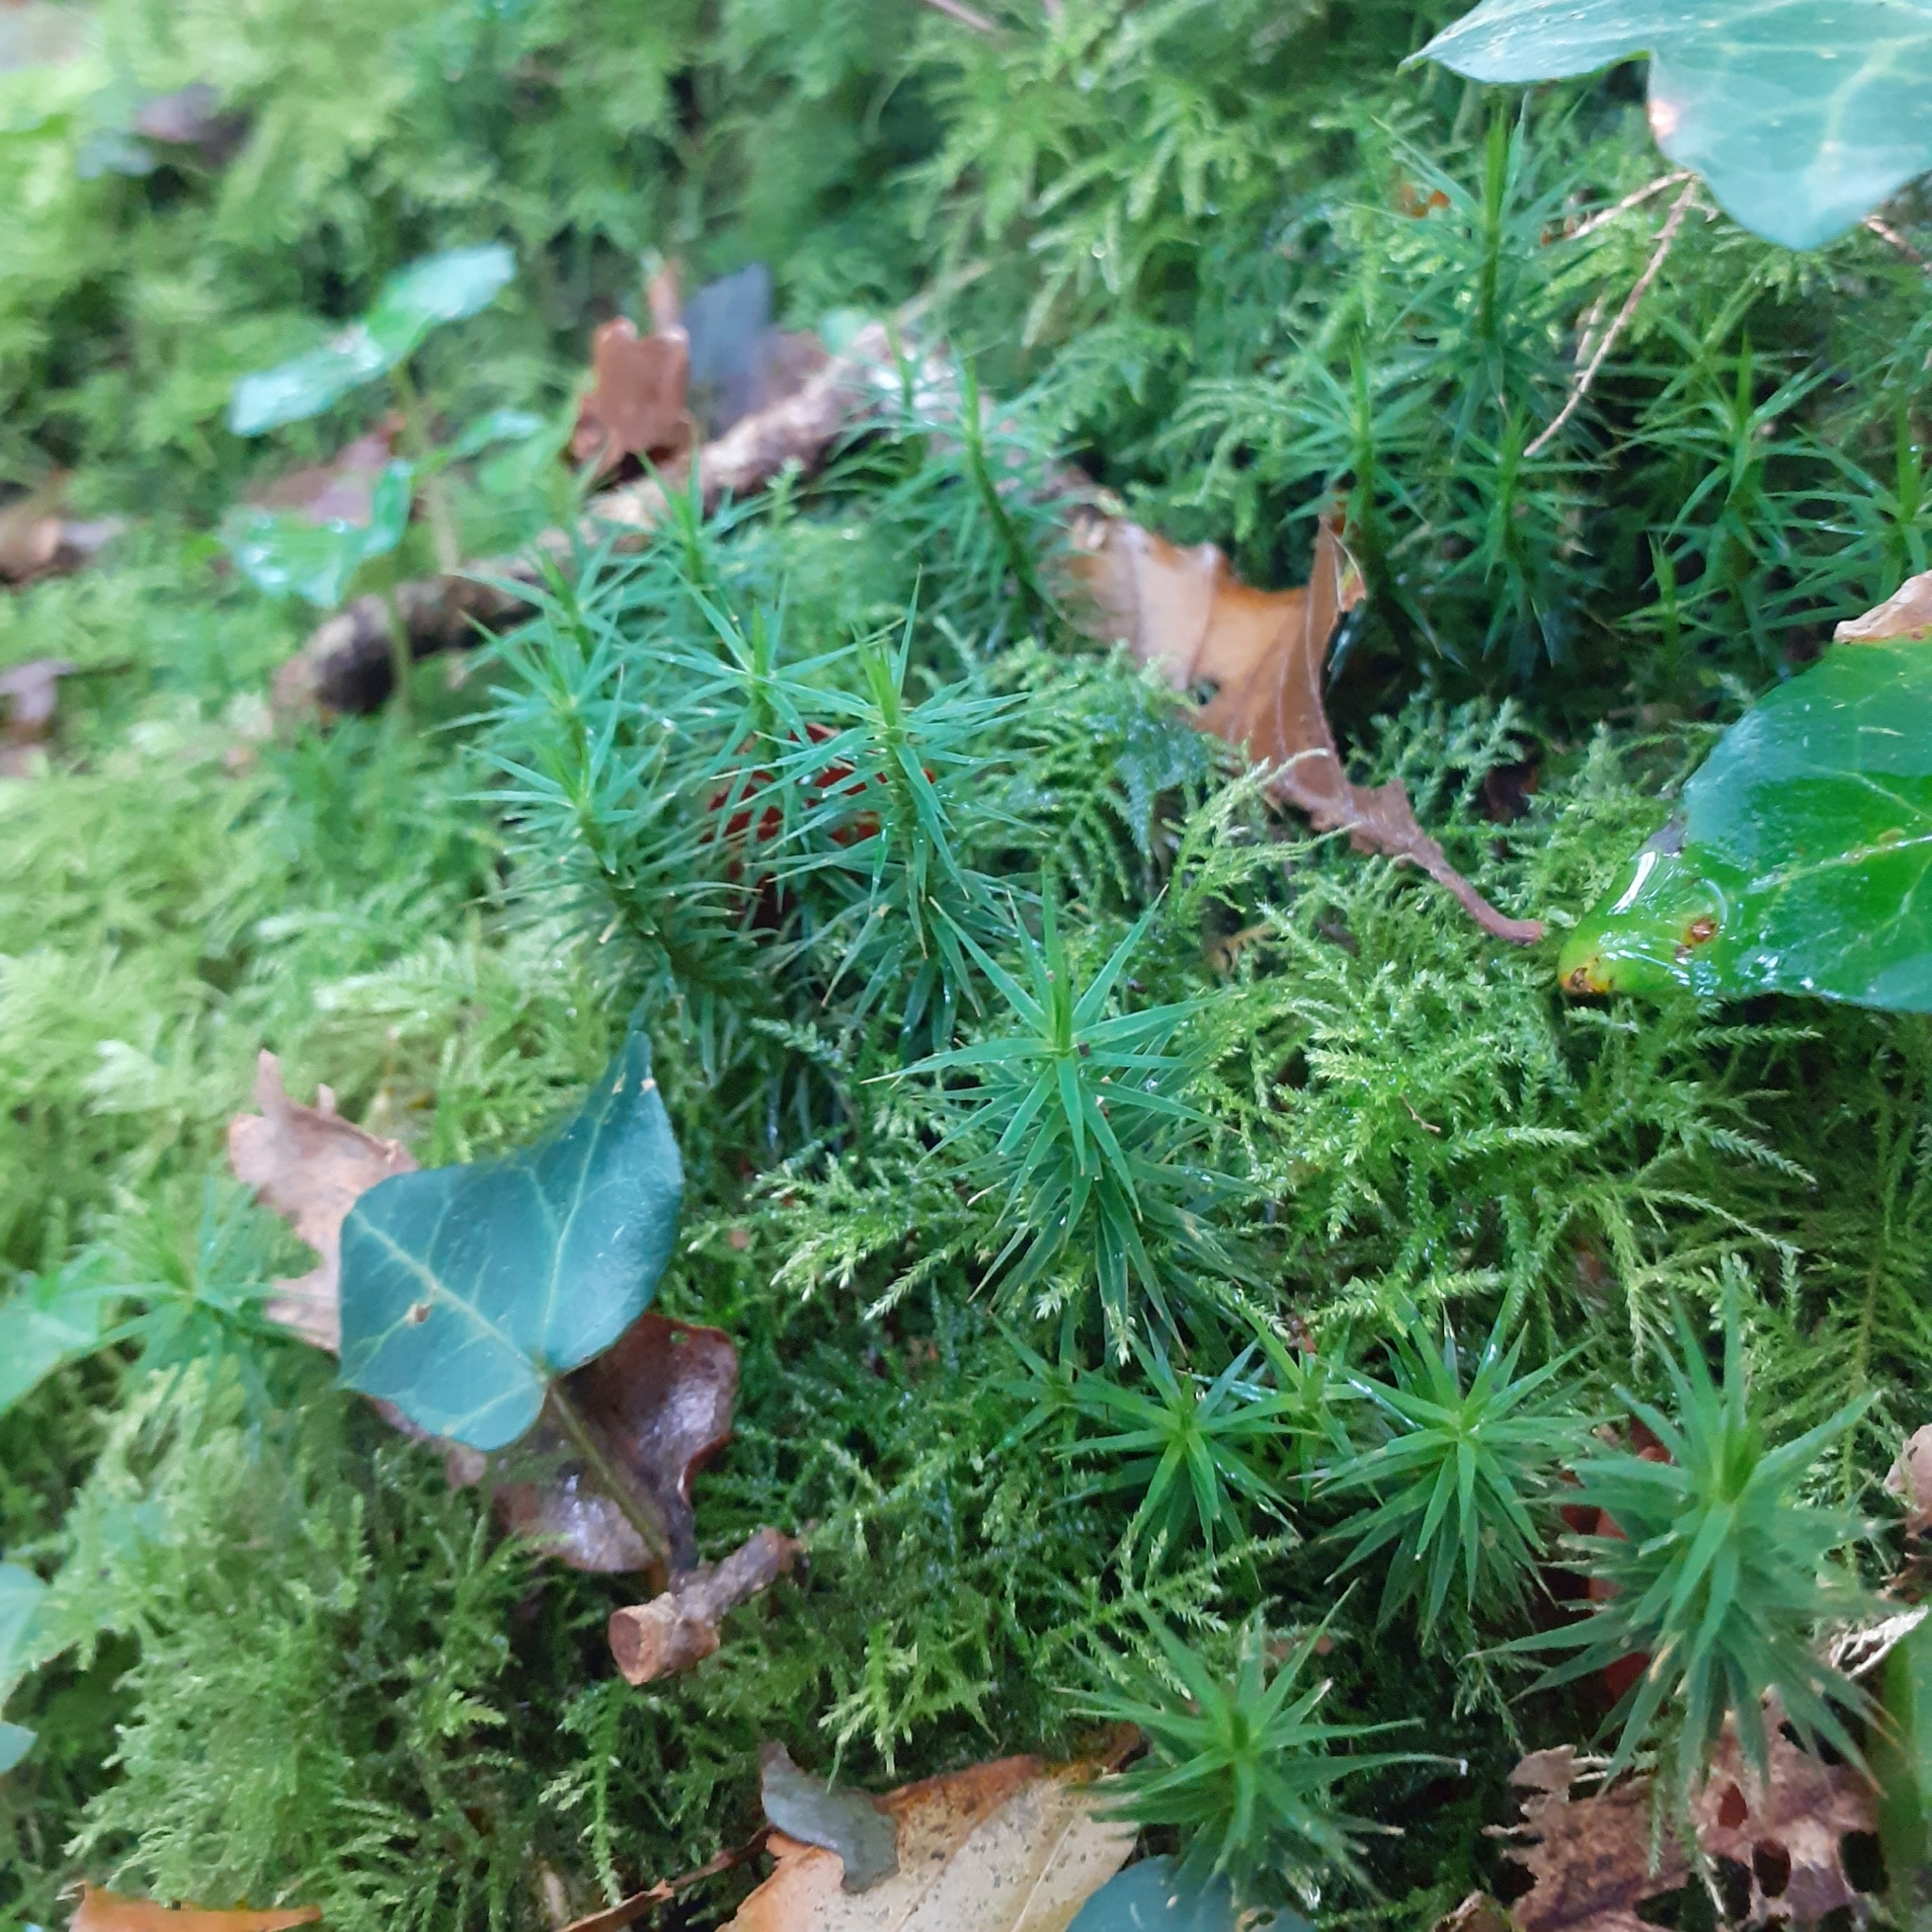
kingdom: Plantae
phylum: Bryophyta
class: Polytrichopsida
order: Polytrichales
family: Polytrichaceae
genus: Polytrichum
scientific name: Polytrichum formosum
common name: Bank haircap moss
